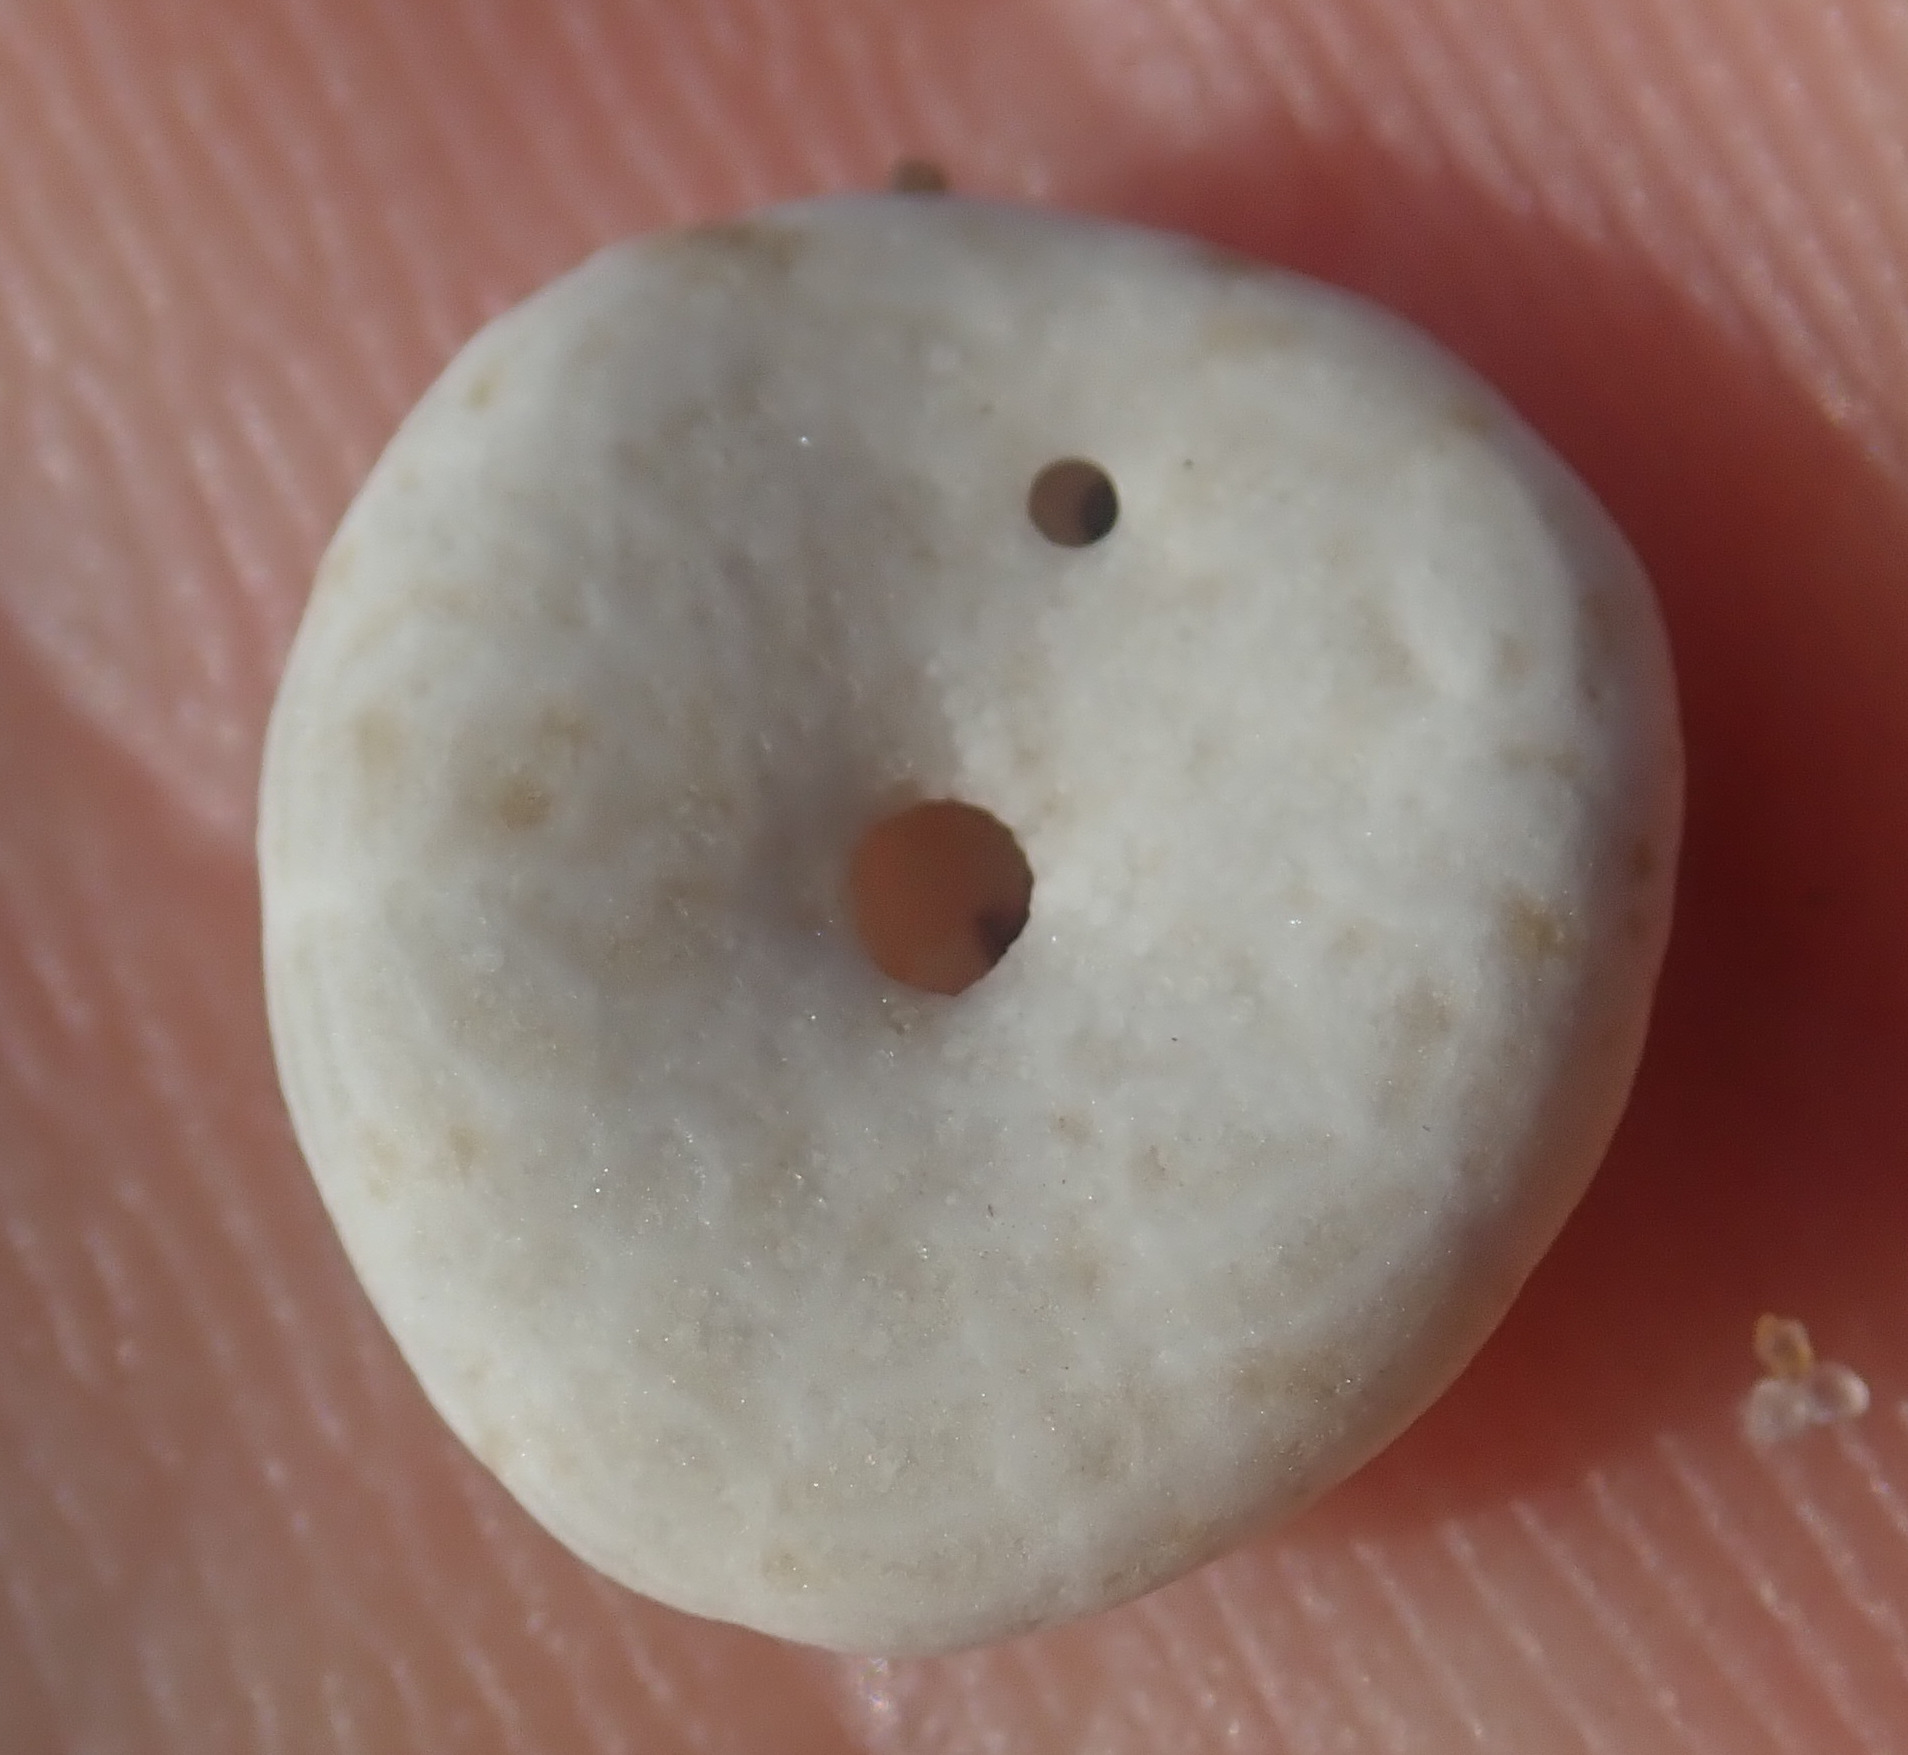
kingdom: Animalia
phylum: Echinodermata
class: Echinoidea
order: Echinolampadacea
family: Fibulariidae
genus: Echinocyamus
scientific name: Echinocyamus pusillus
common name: Broad beau of sea
